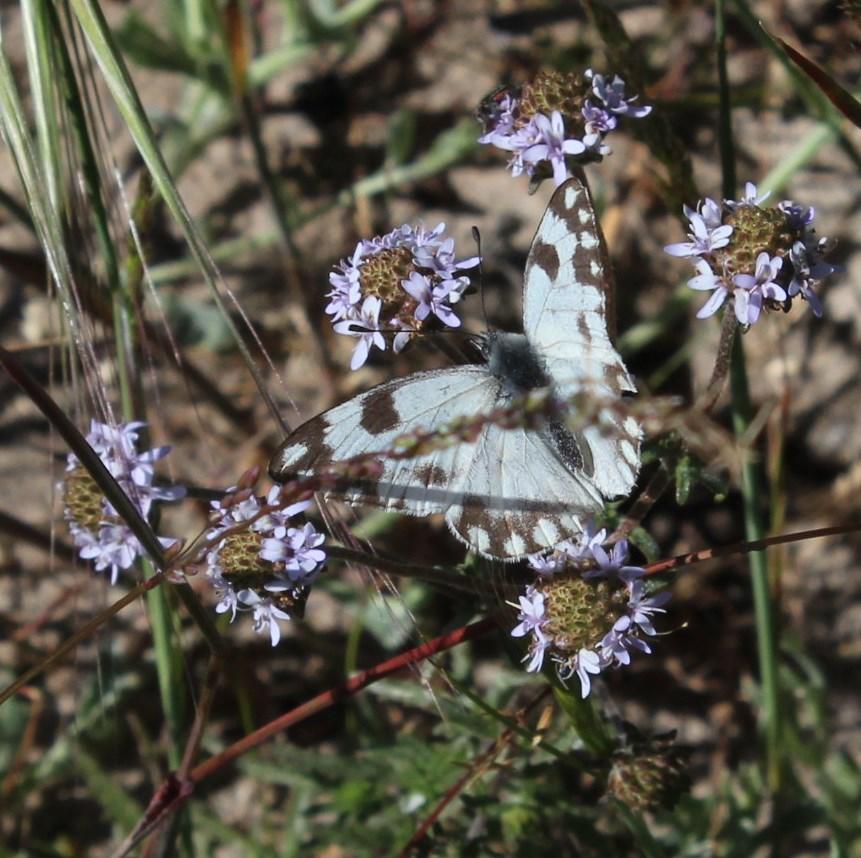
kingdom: Animalia
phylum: Arthropoda
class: Insecta
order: Lepidoptera
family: Pieridae
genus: Pontia
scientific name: Pontia helice
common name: Meadow white
